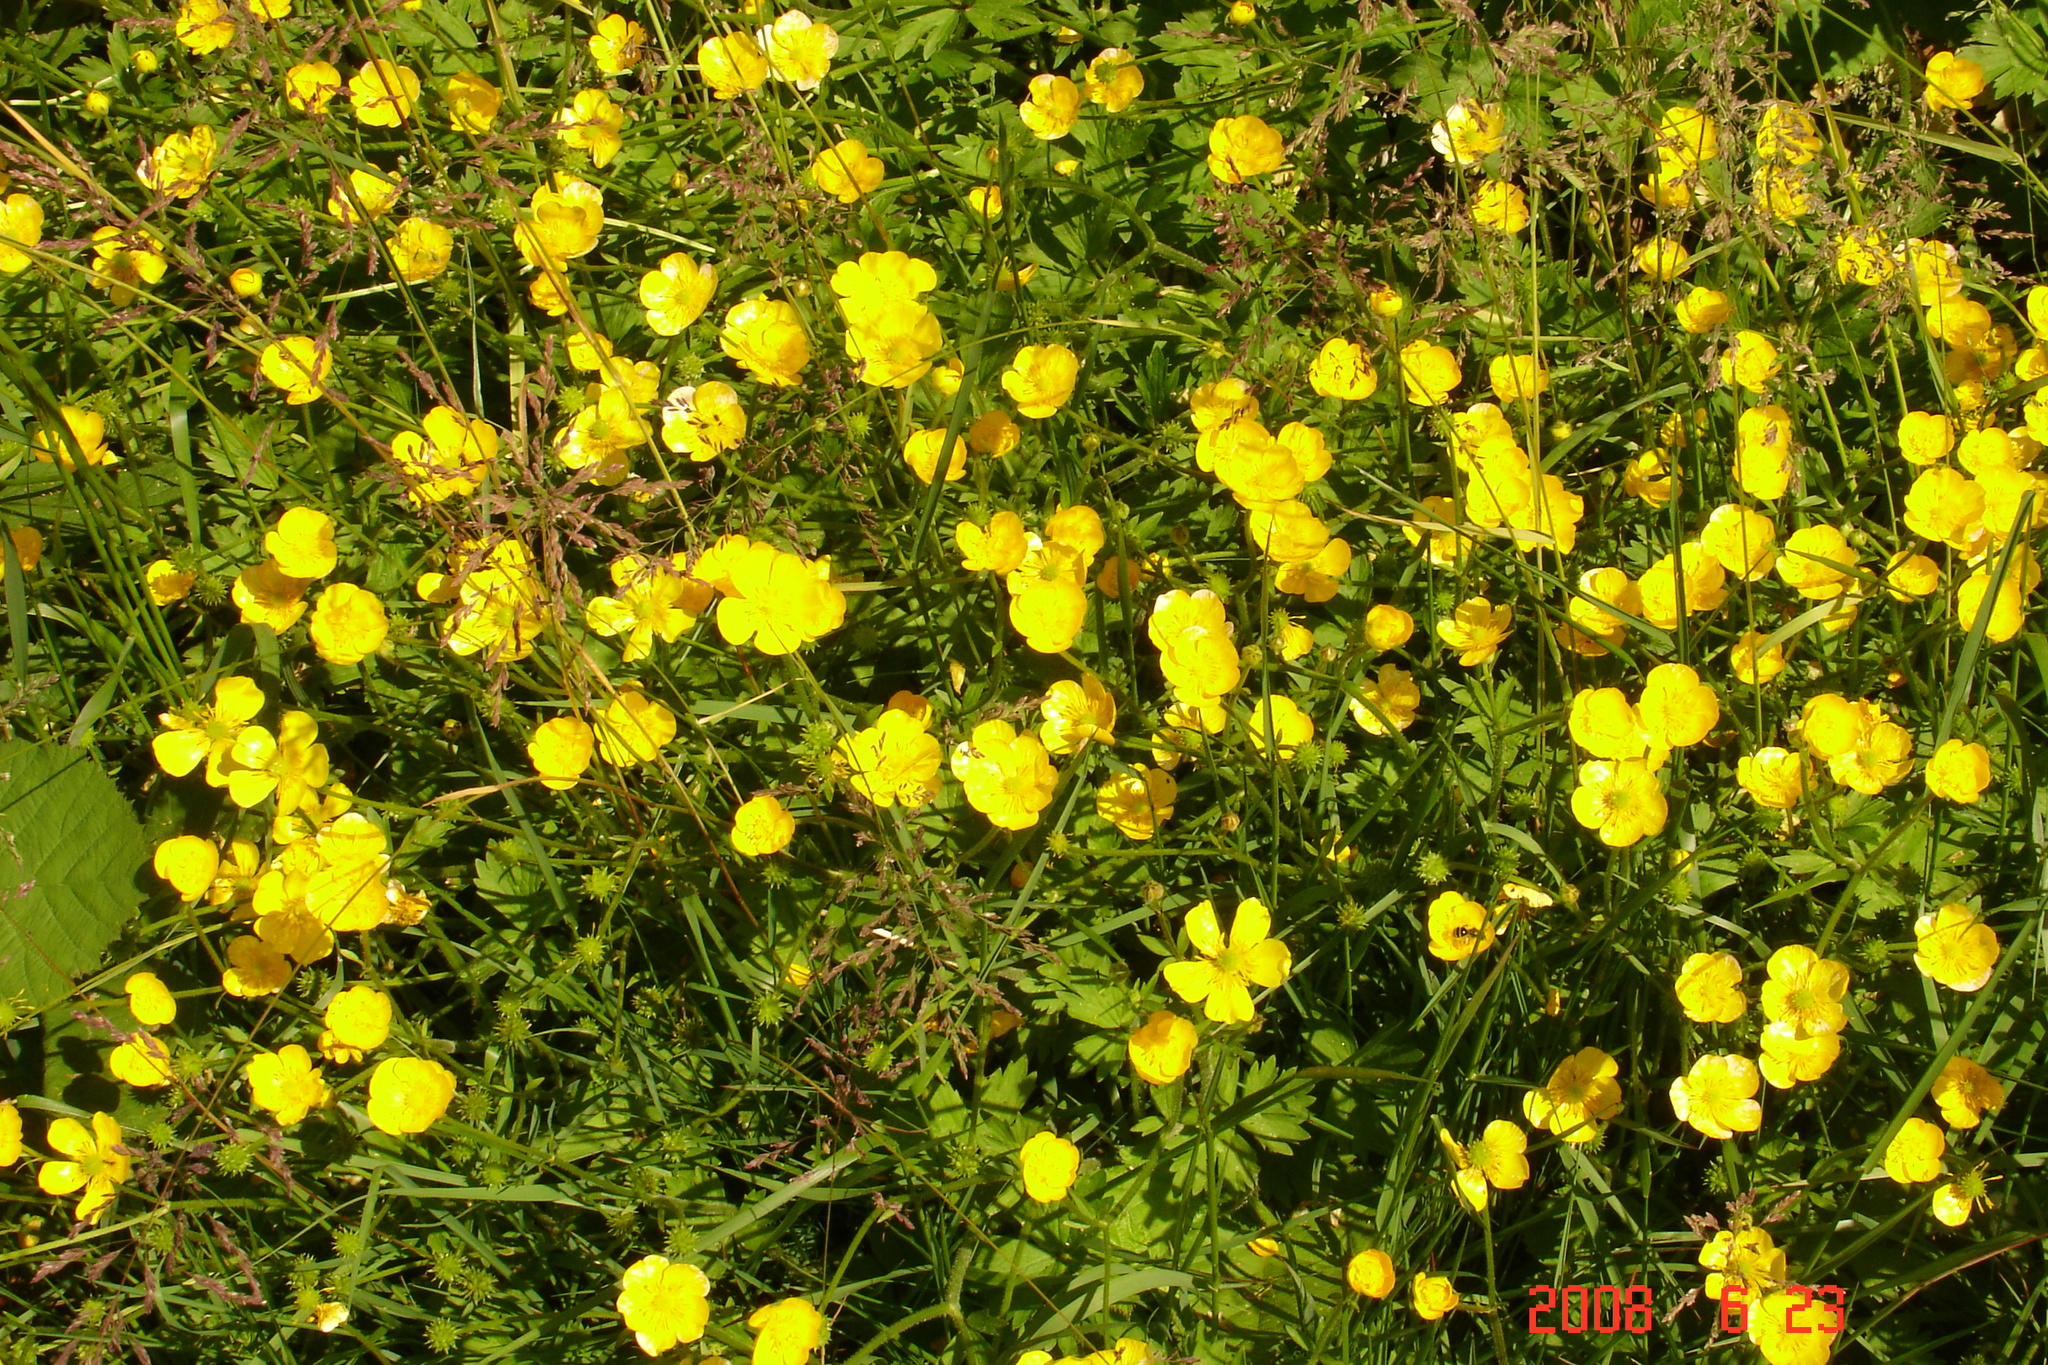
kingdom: Plantae
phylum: Tracheophyta
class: Magnoliopsida
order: Ranunculales
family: Ranunculaceae
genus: Ranunculus
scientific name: Ranunculus repens
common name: Creeping buttercup
